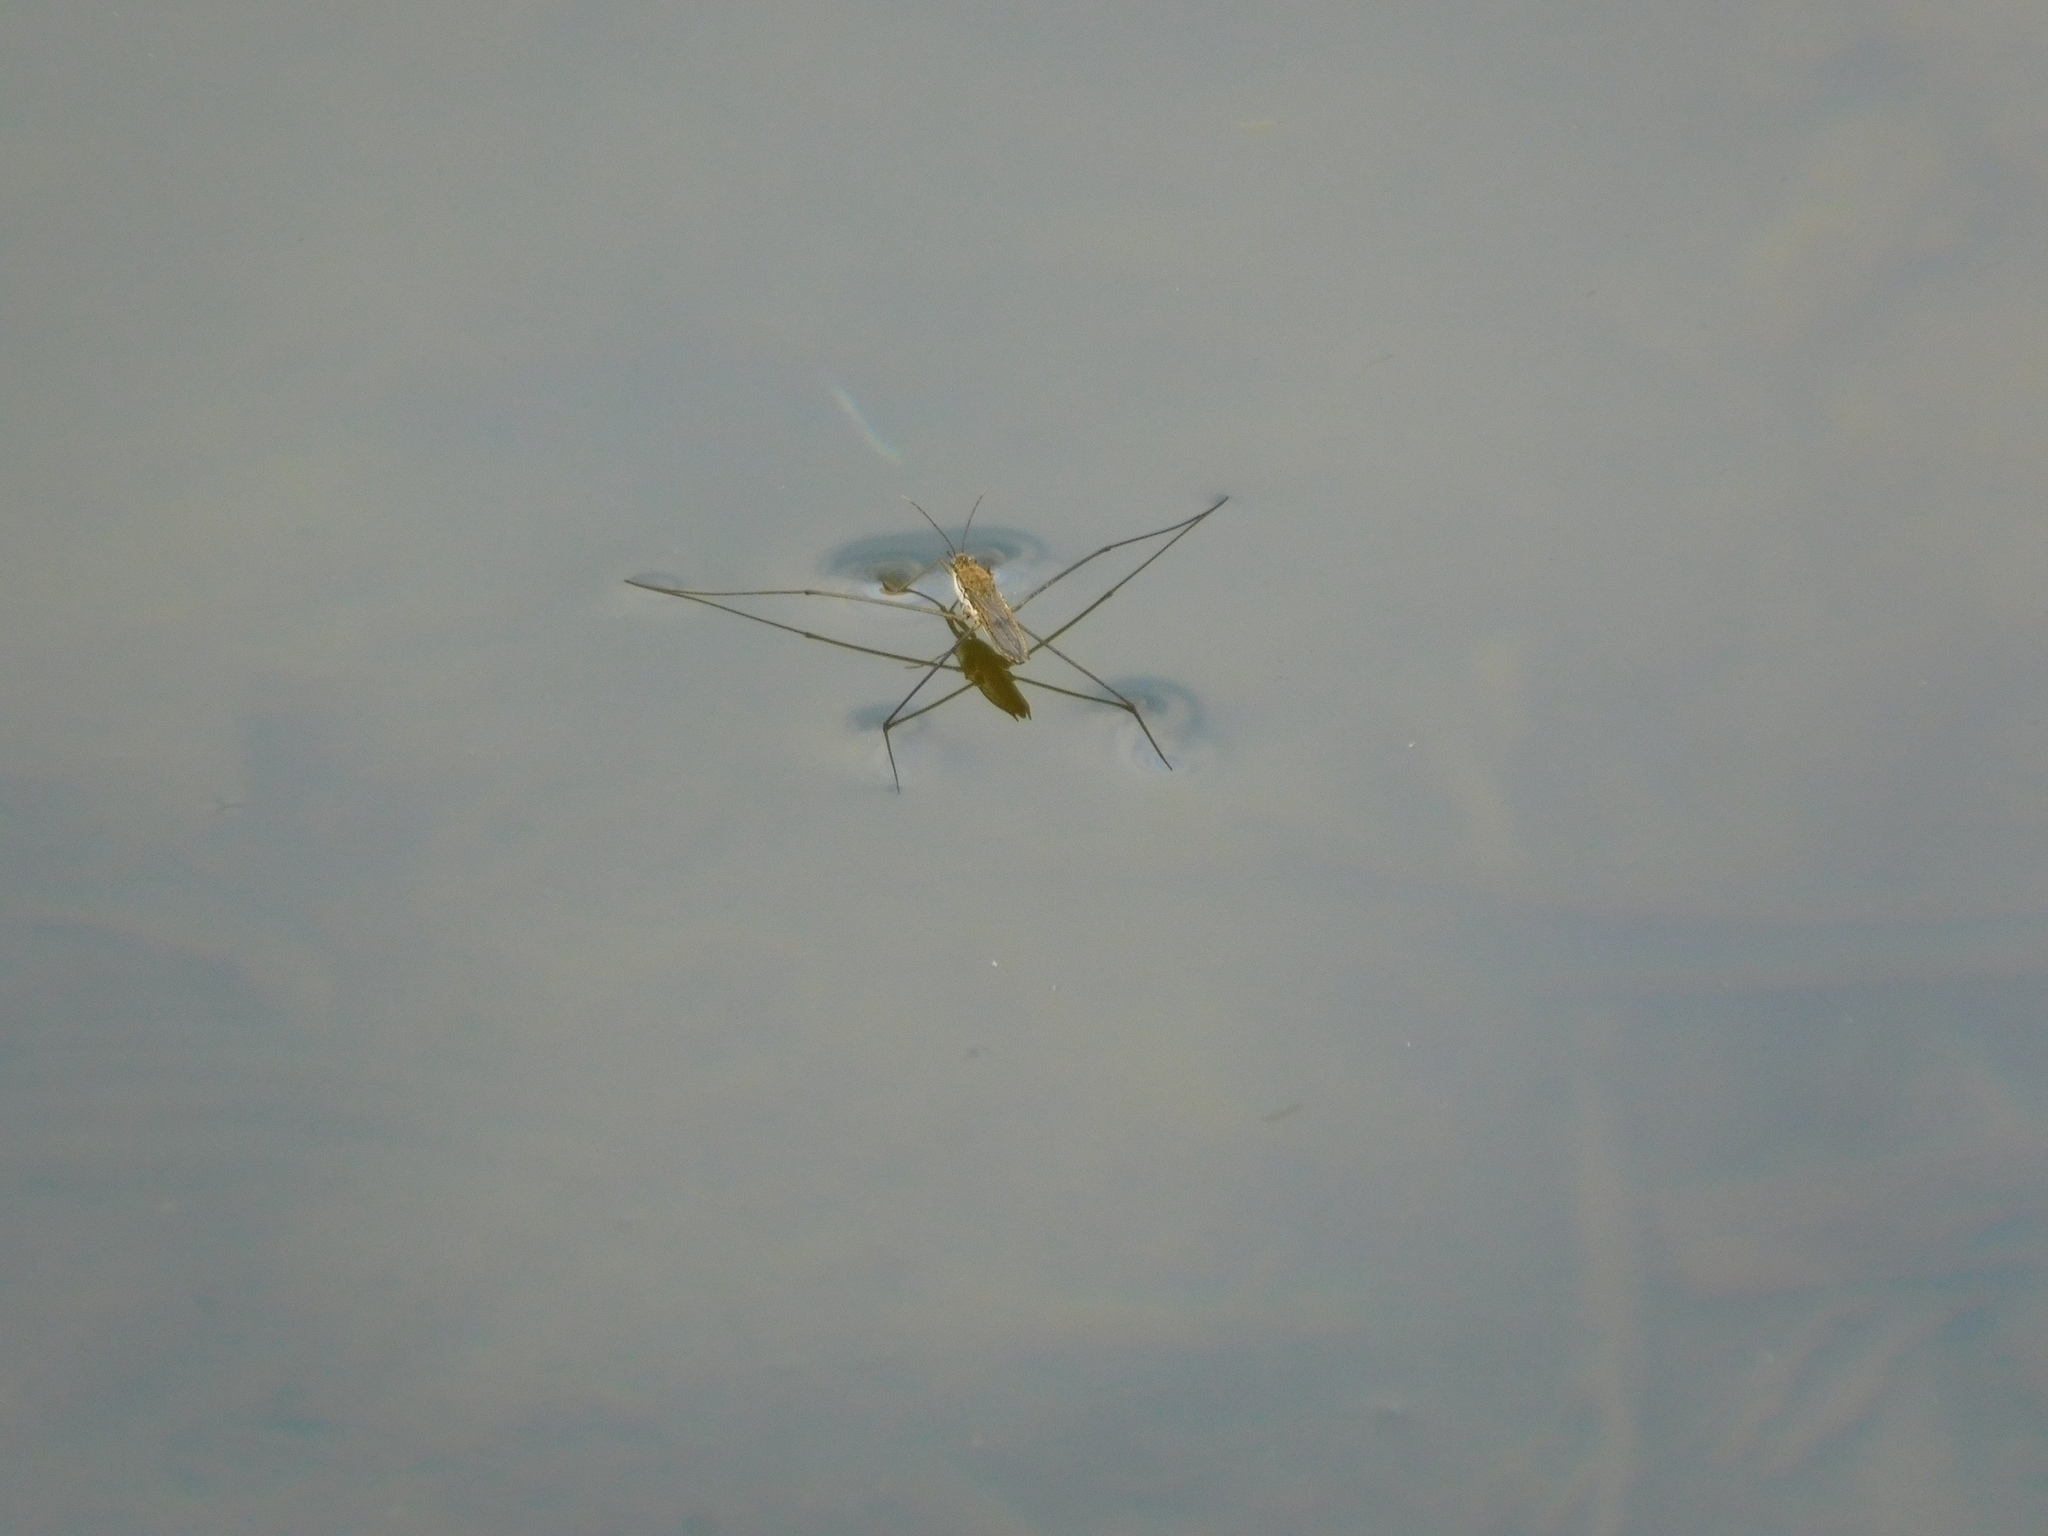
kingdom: Animalia
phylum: Arthropoda
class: Insecta
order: Hemiptera
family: Gerridae
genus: Aquarius
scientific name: Aquarius paludum
